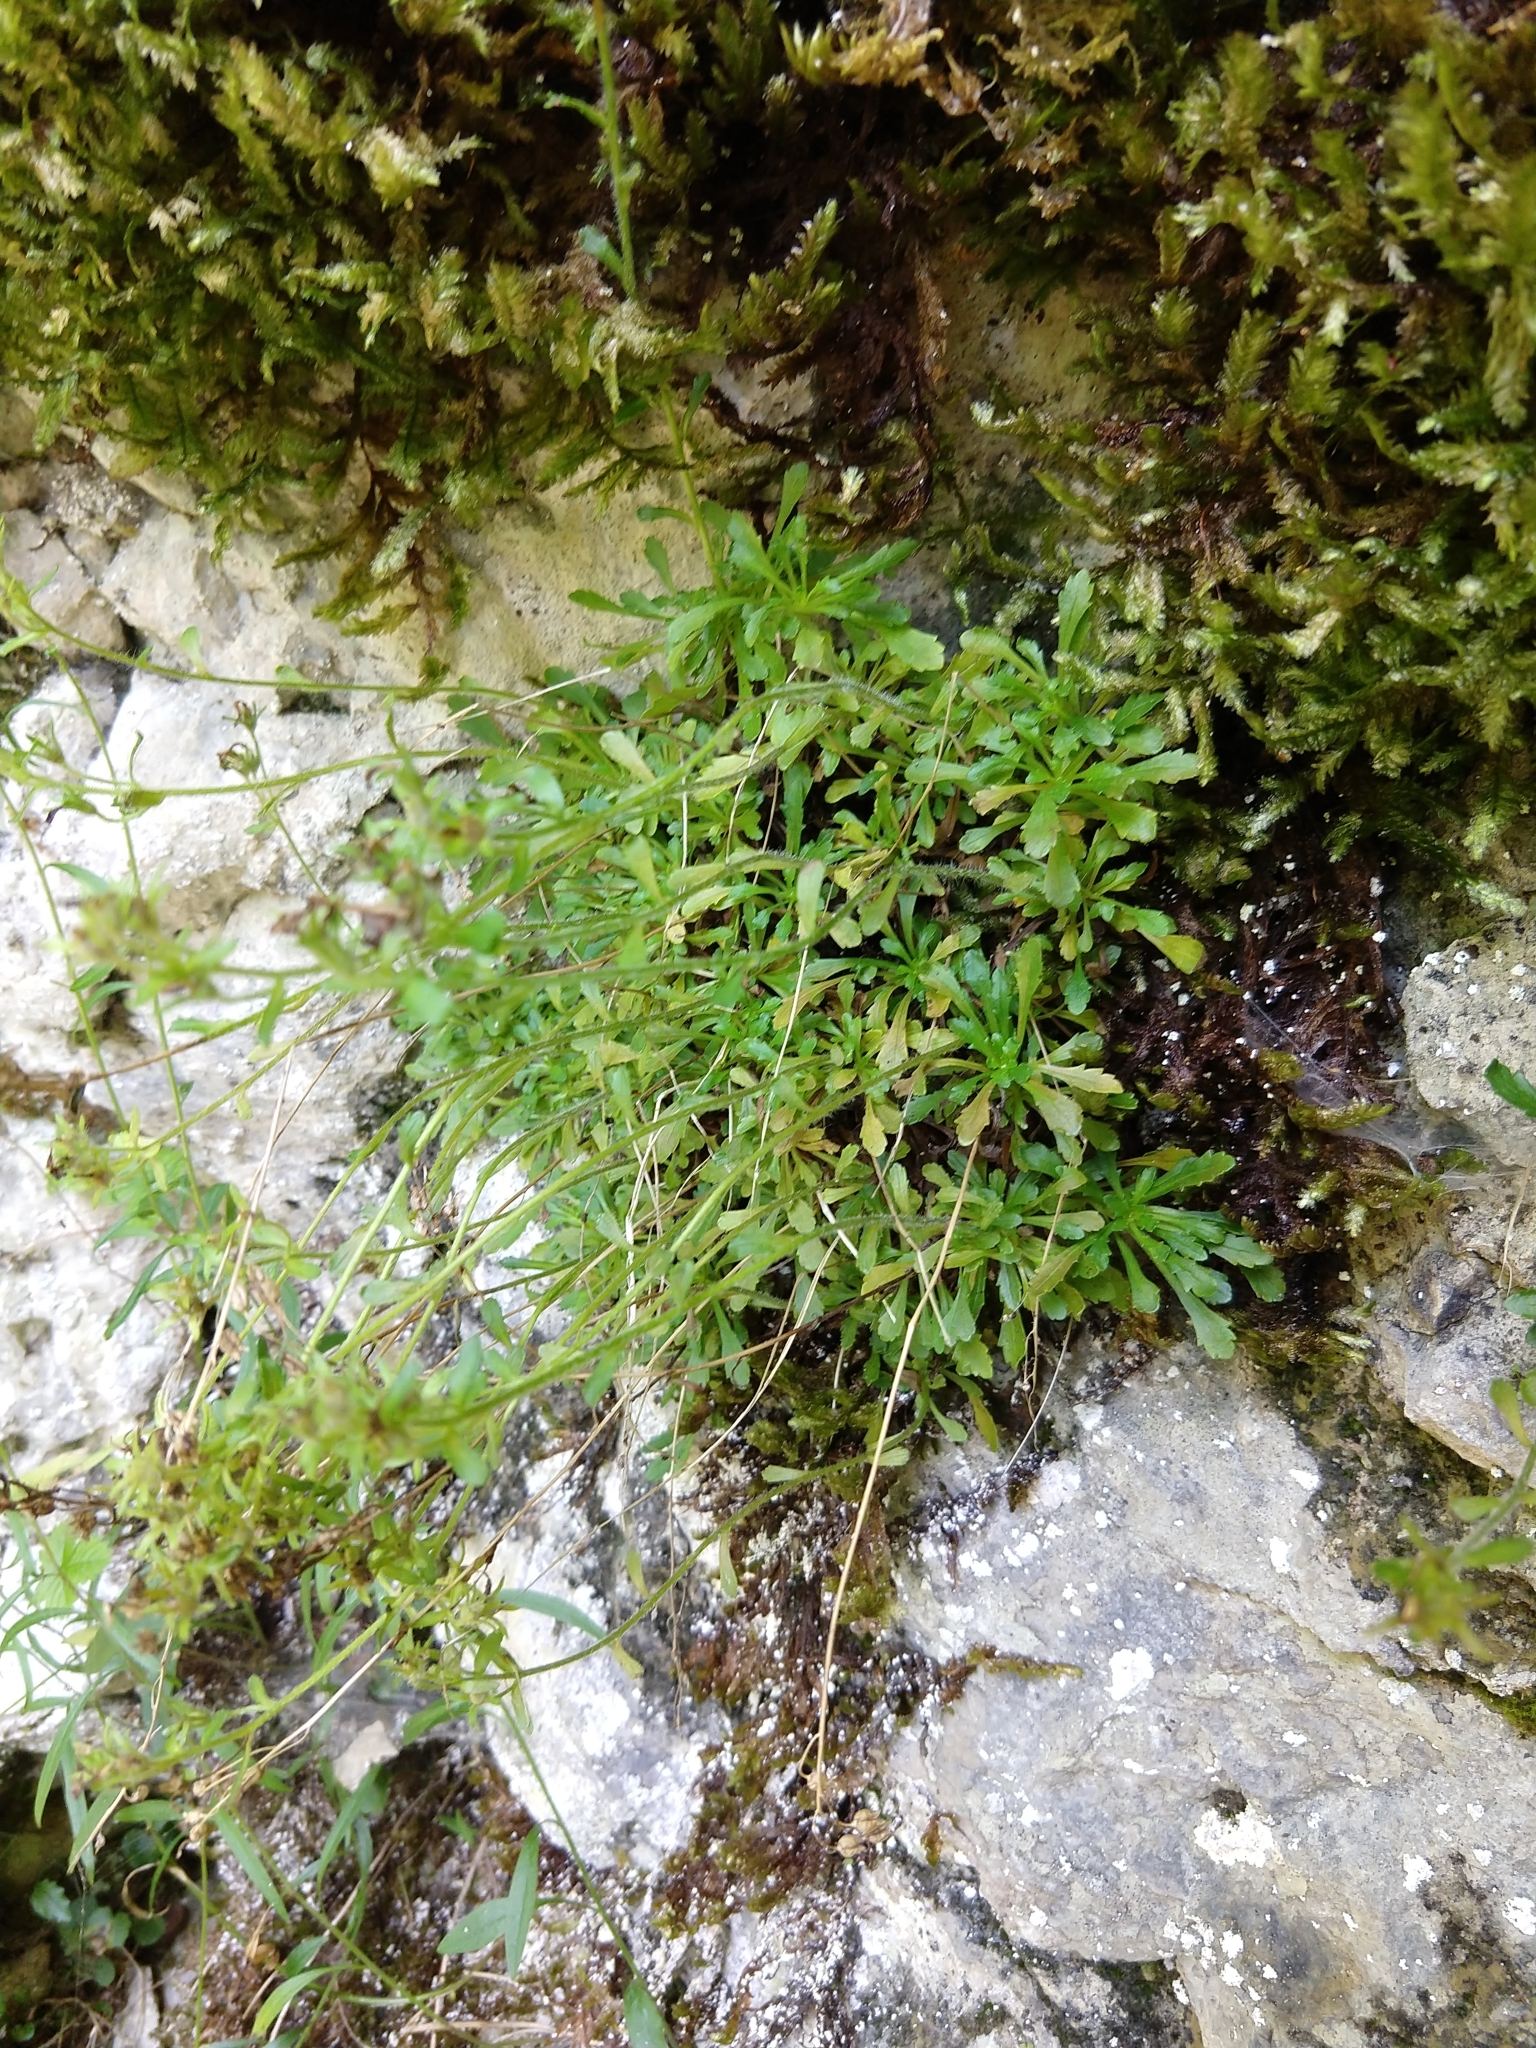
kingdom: Plantae
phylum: Tracheophyta
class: Magnoliopsida
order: Lamiales
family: Plantaginaceae
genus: Erinus
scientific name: Erinus alpinus
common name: Fairy foxglove
